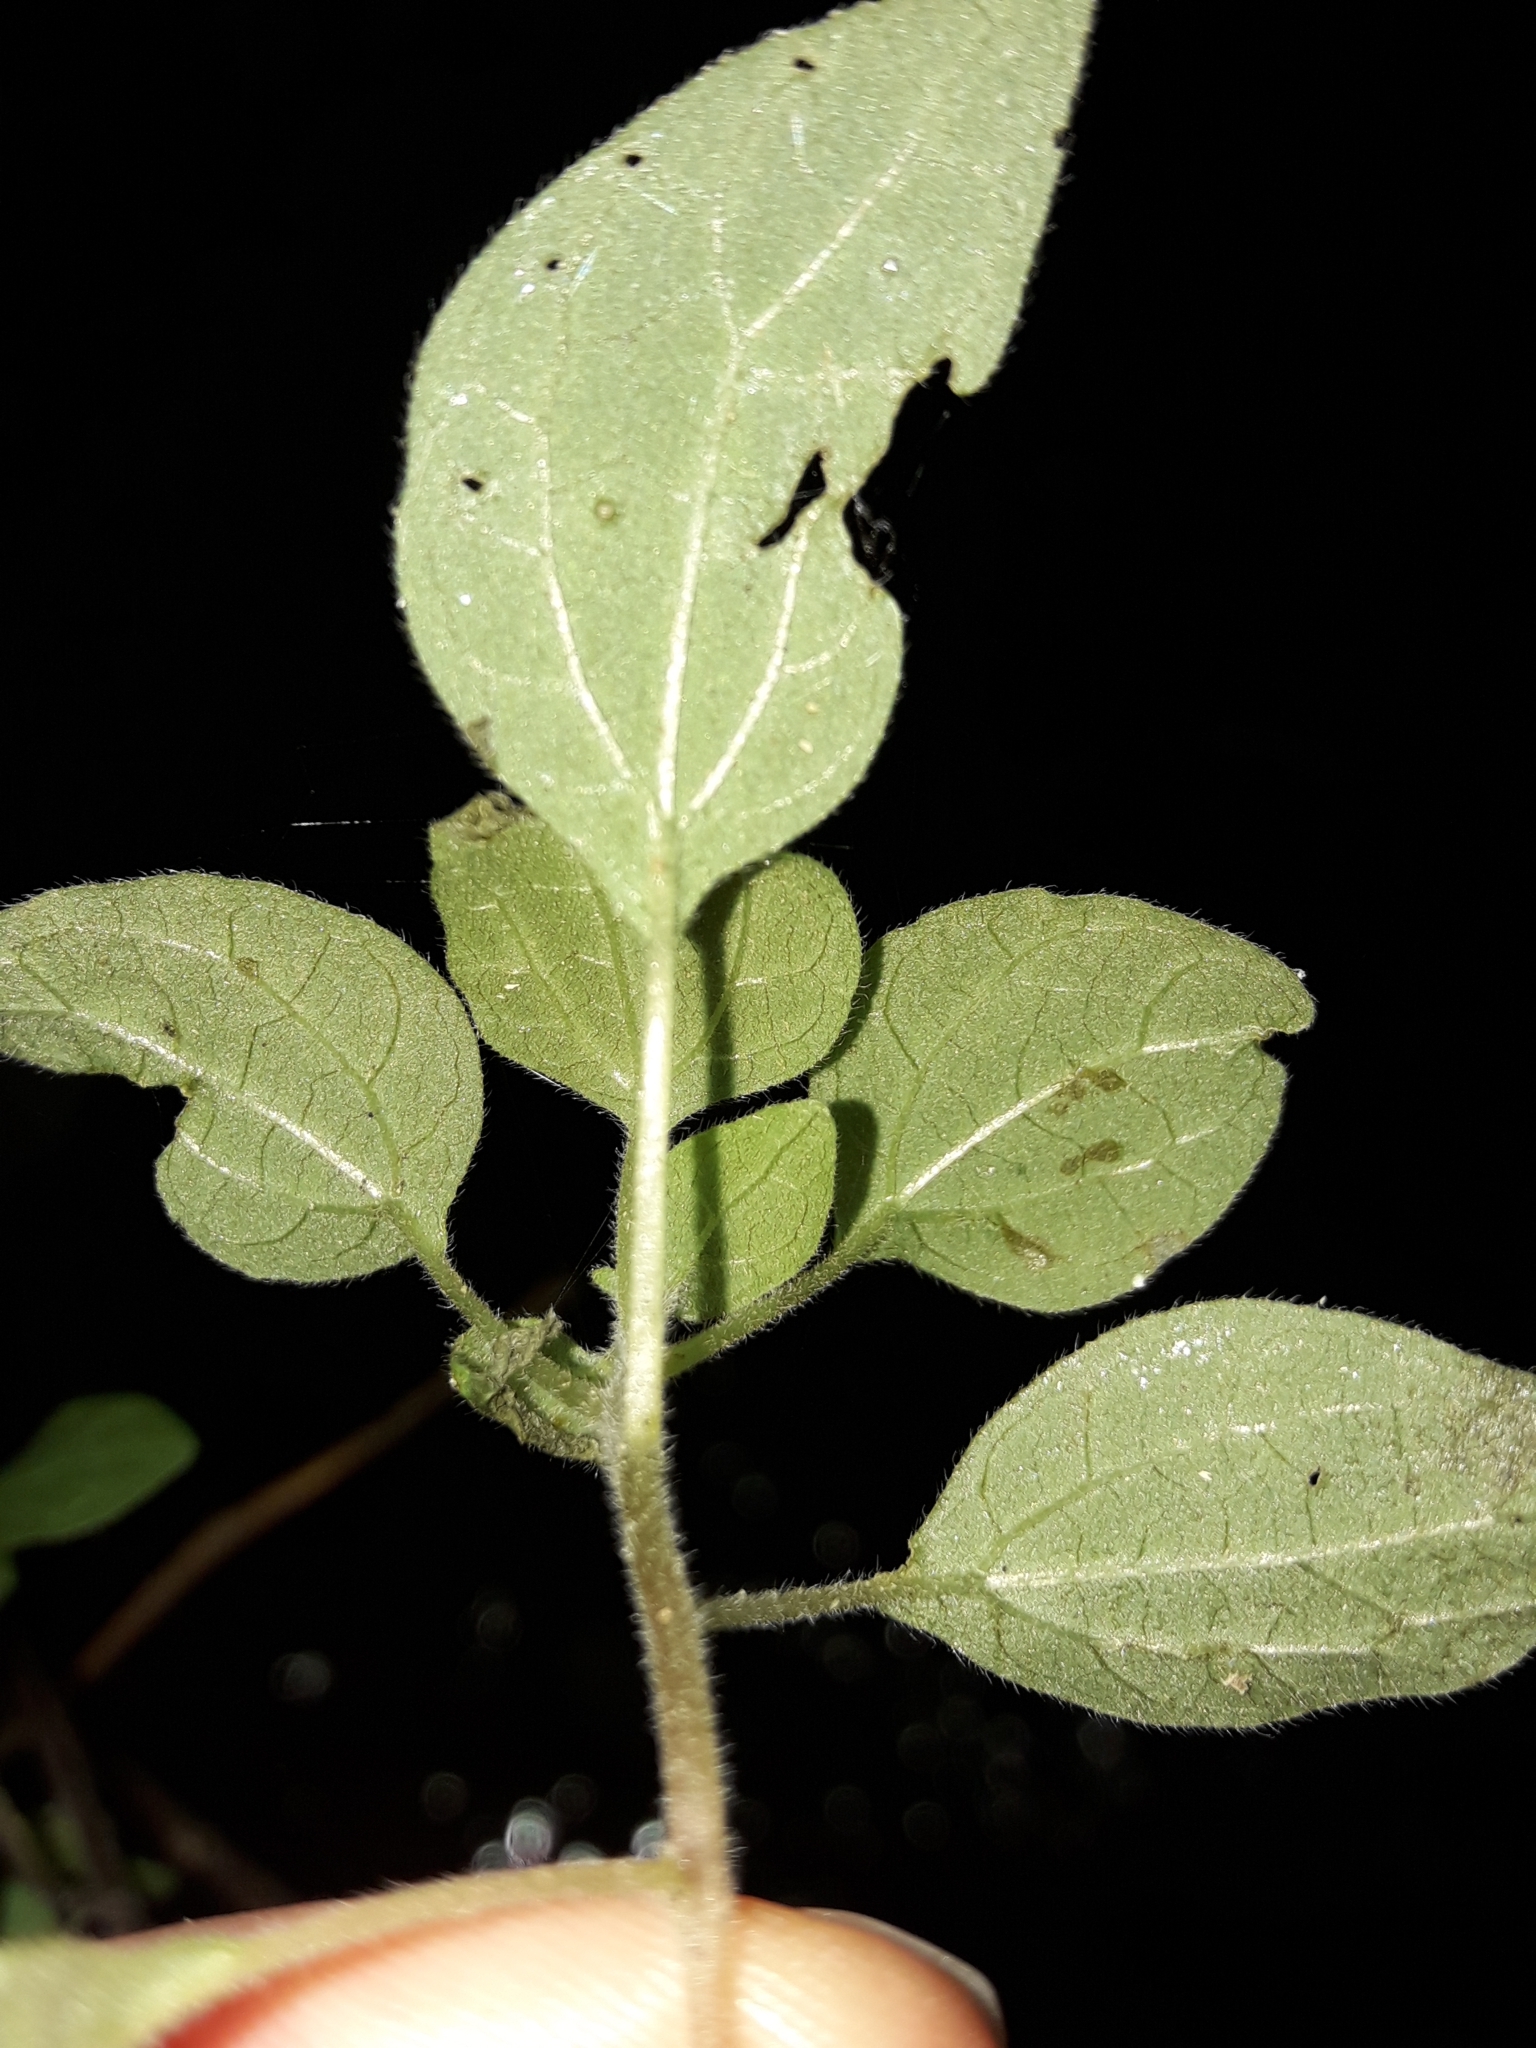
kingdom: Plantae
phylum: Tracheophyta
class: Magnoliopsida
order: Rosales
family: Urticaceae
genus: Parietaria
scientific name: Parietaria judaica
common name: Pellitory-of-the-wall
